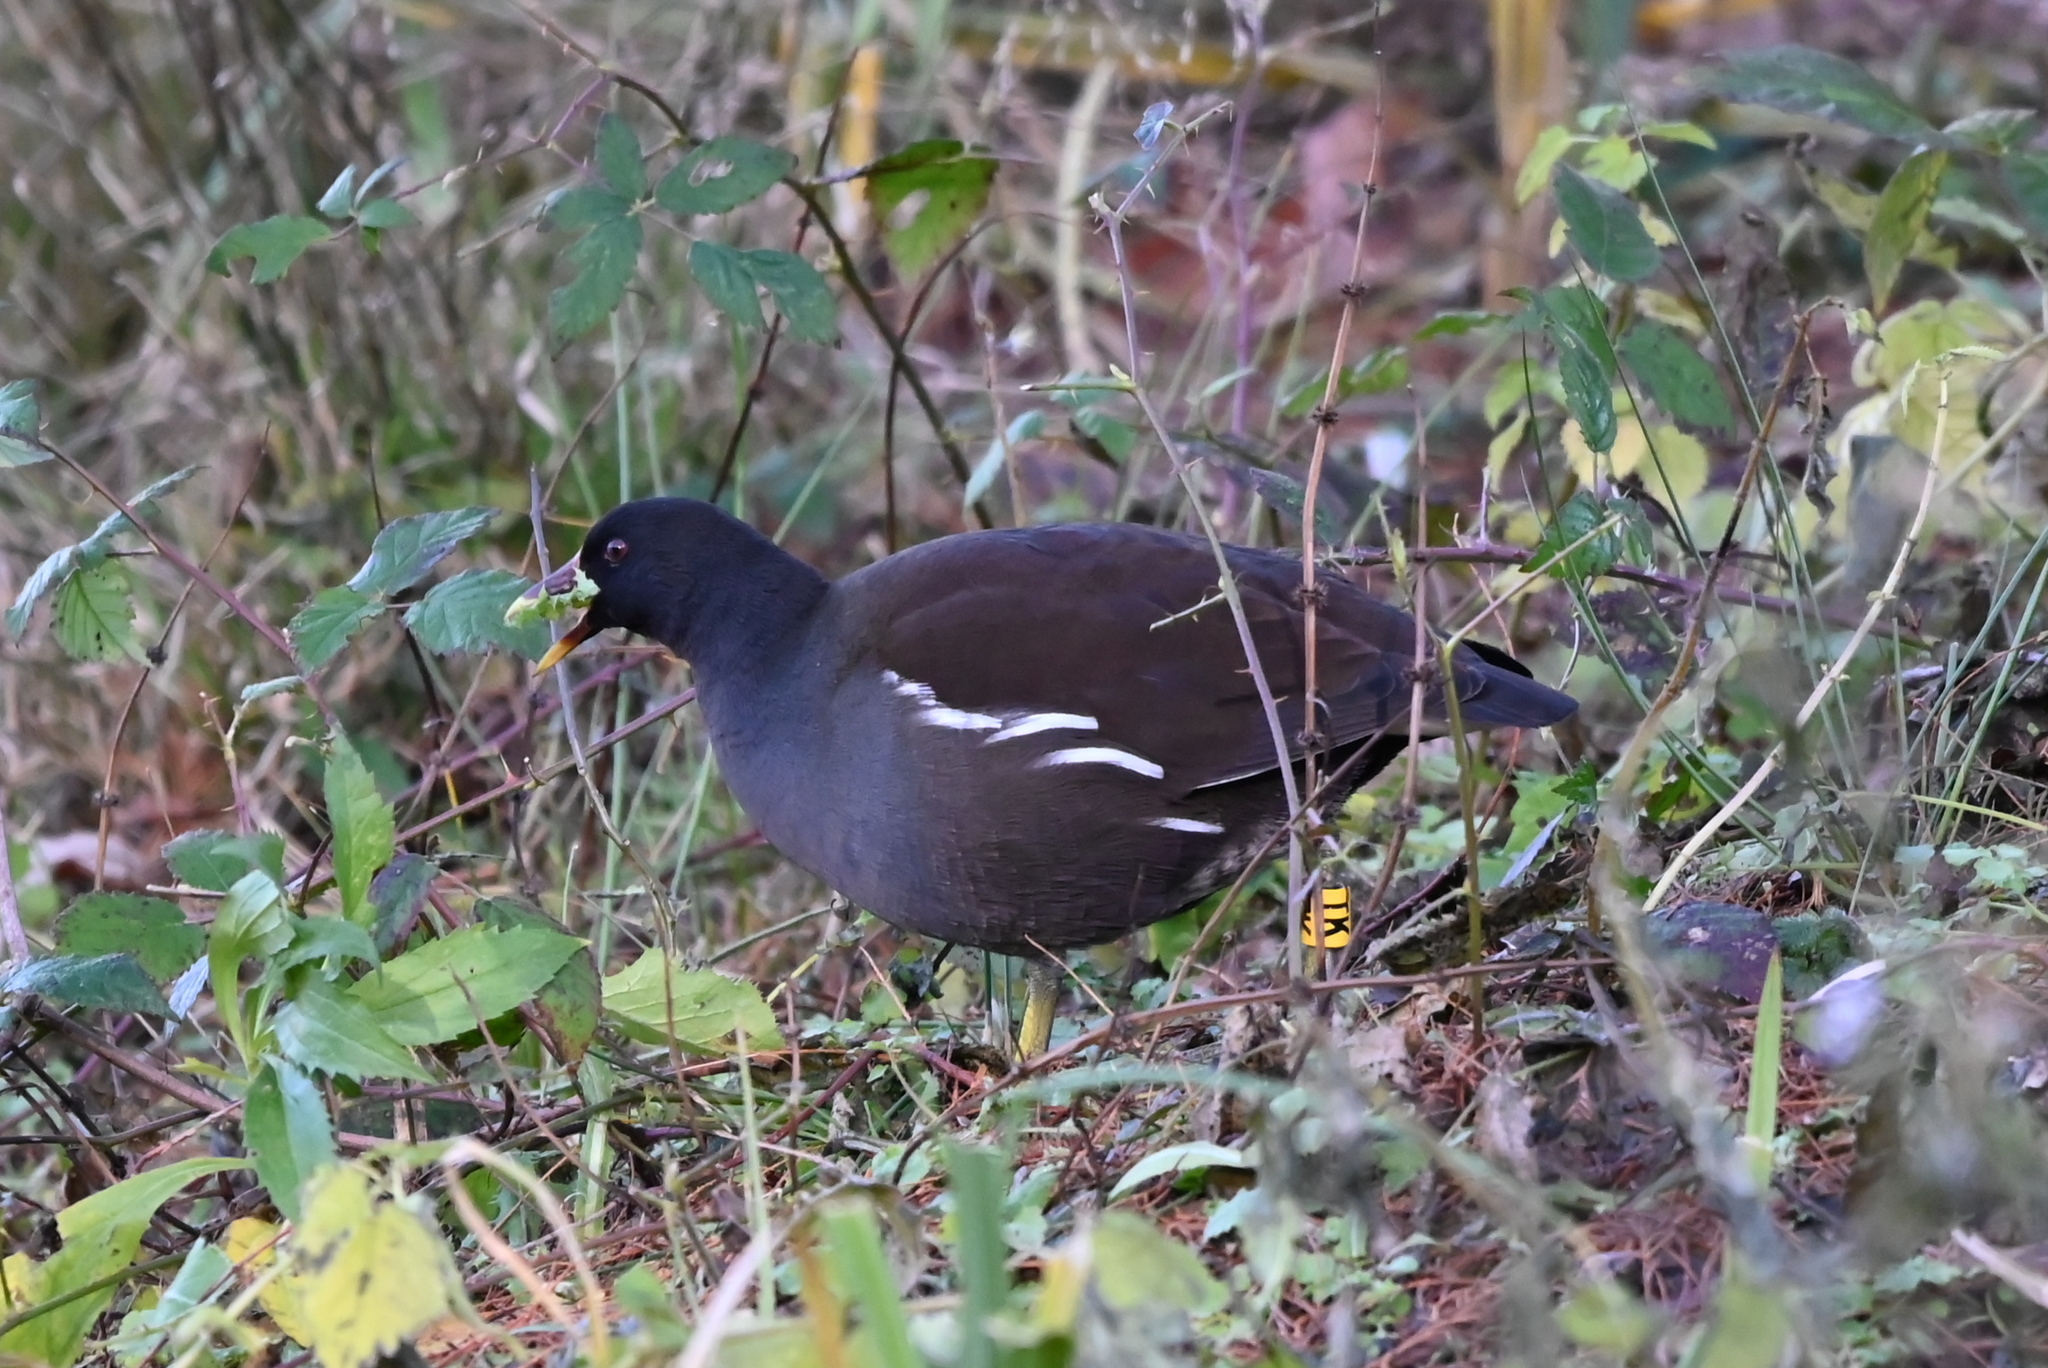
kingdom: Animalia
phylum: Chordata
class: Aves
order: Gruiformes
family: Rallidae
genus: Gallinula
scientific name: Gallinula chloropus
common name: Common moorhen
